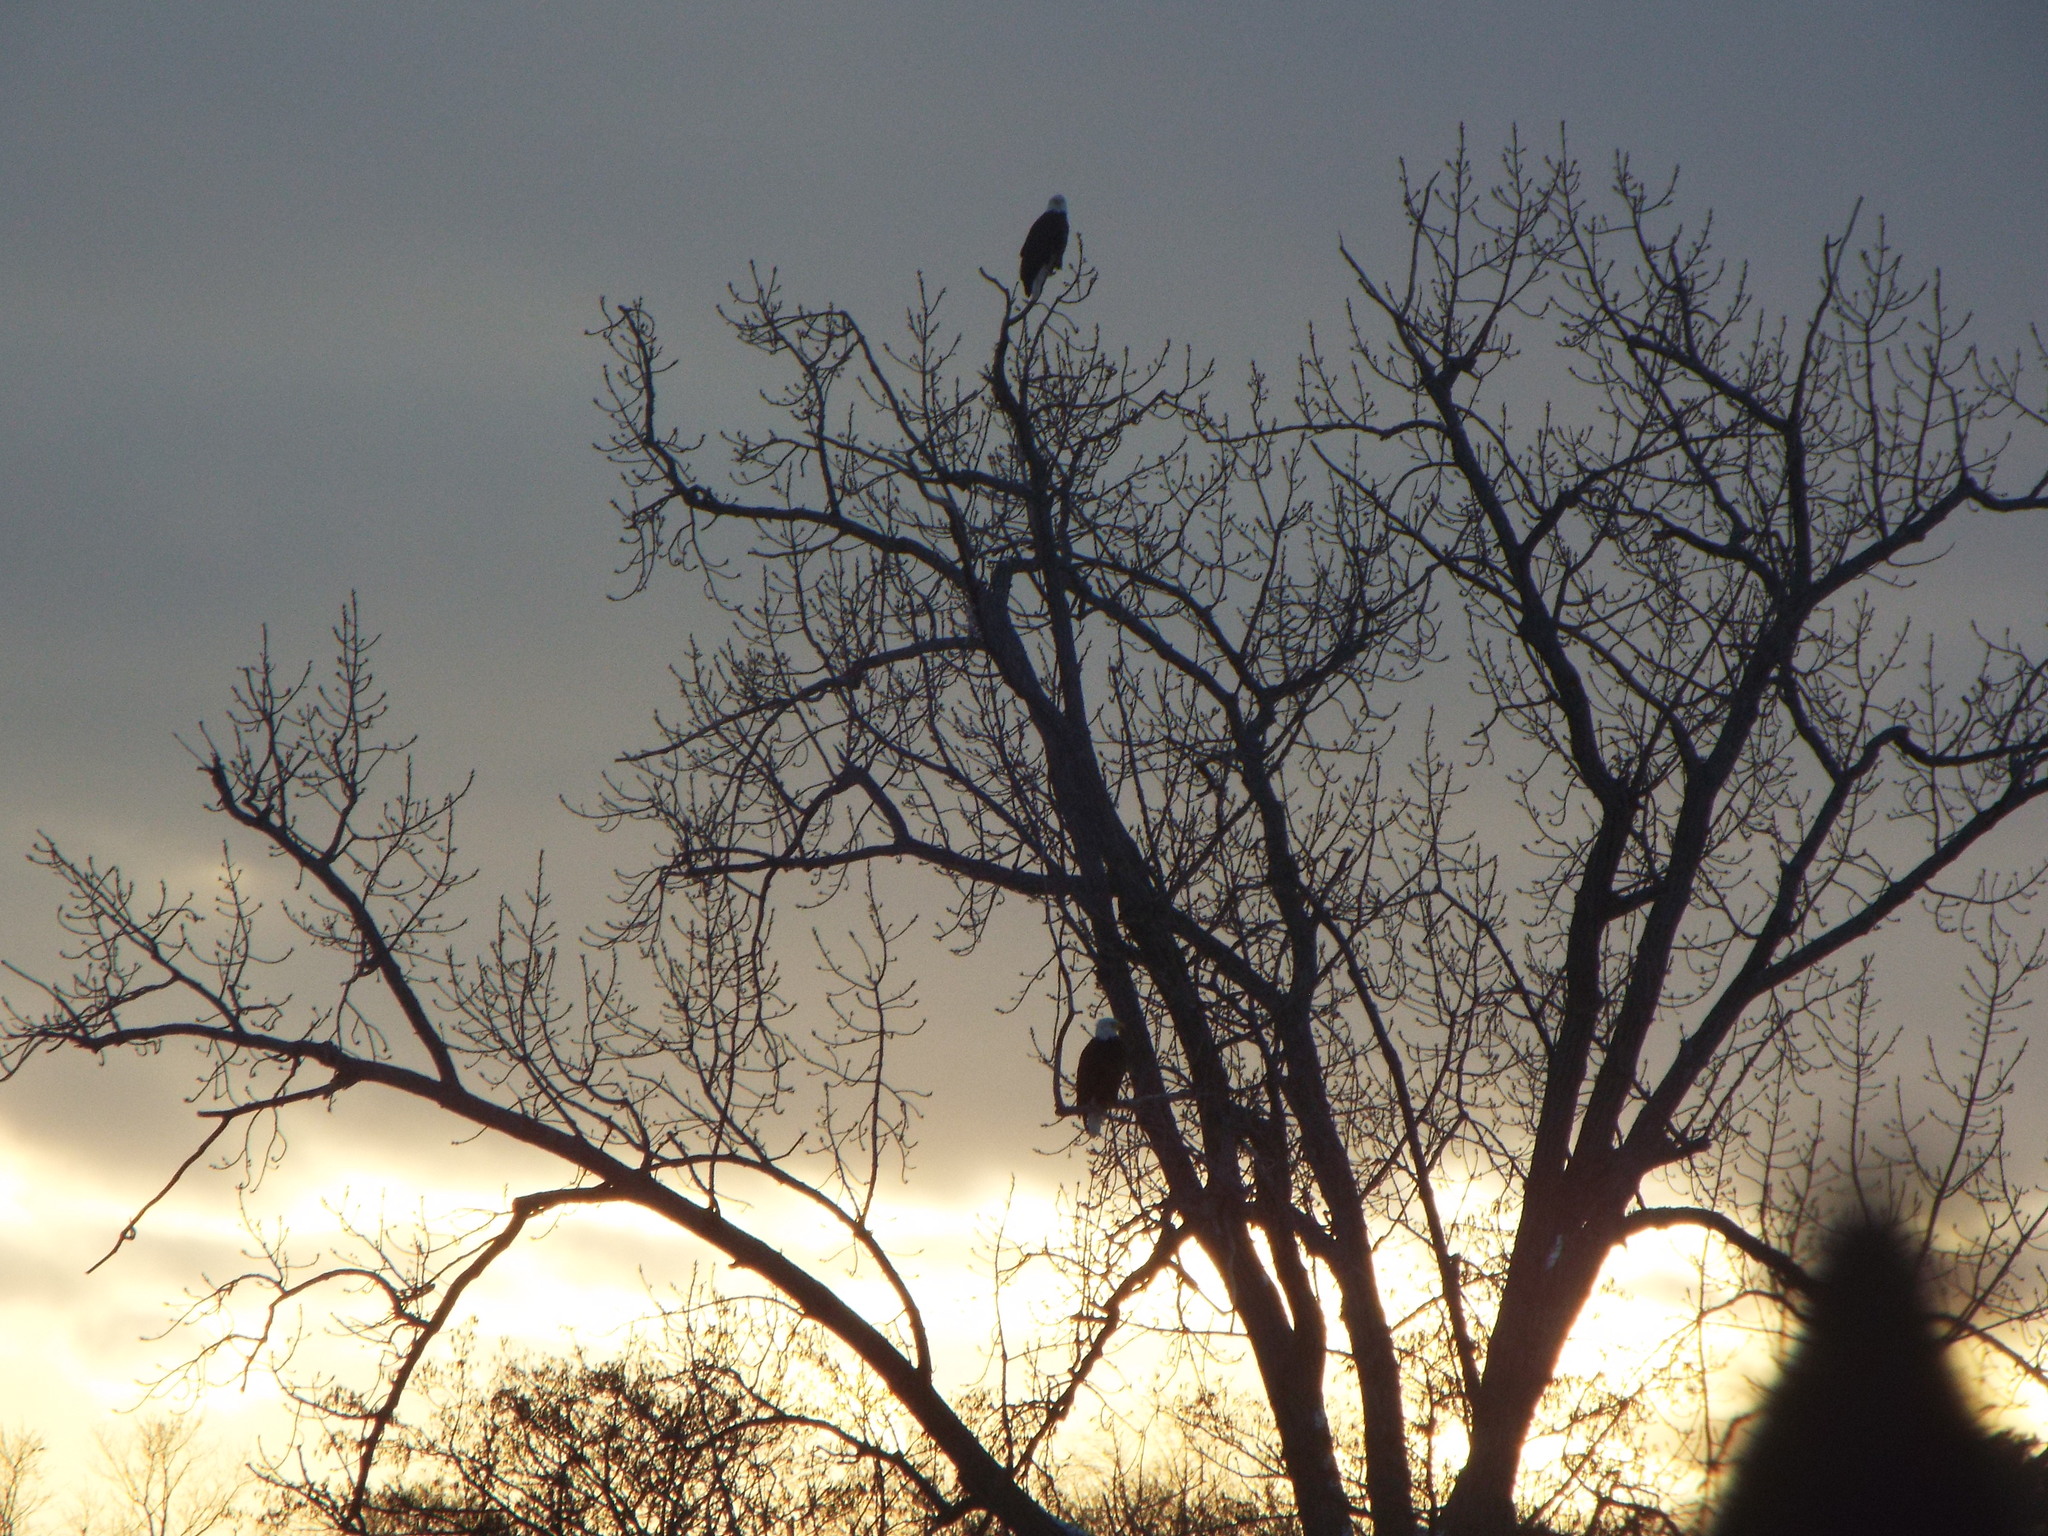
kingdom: Animalia
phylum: Chordata
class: Aves
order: Accipitriformes
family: Accipitridae
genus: Haliaeetus
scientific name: Haliaeetus leucocephalus
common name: Bald eagle
